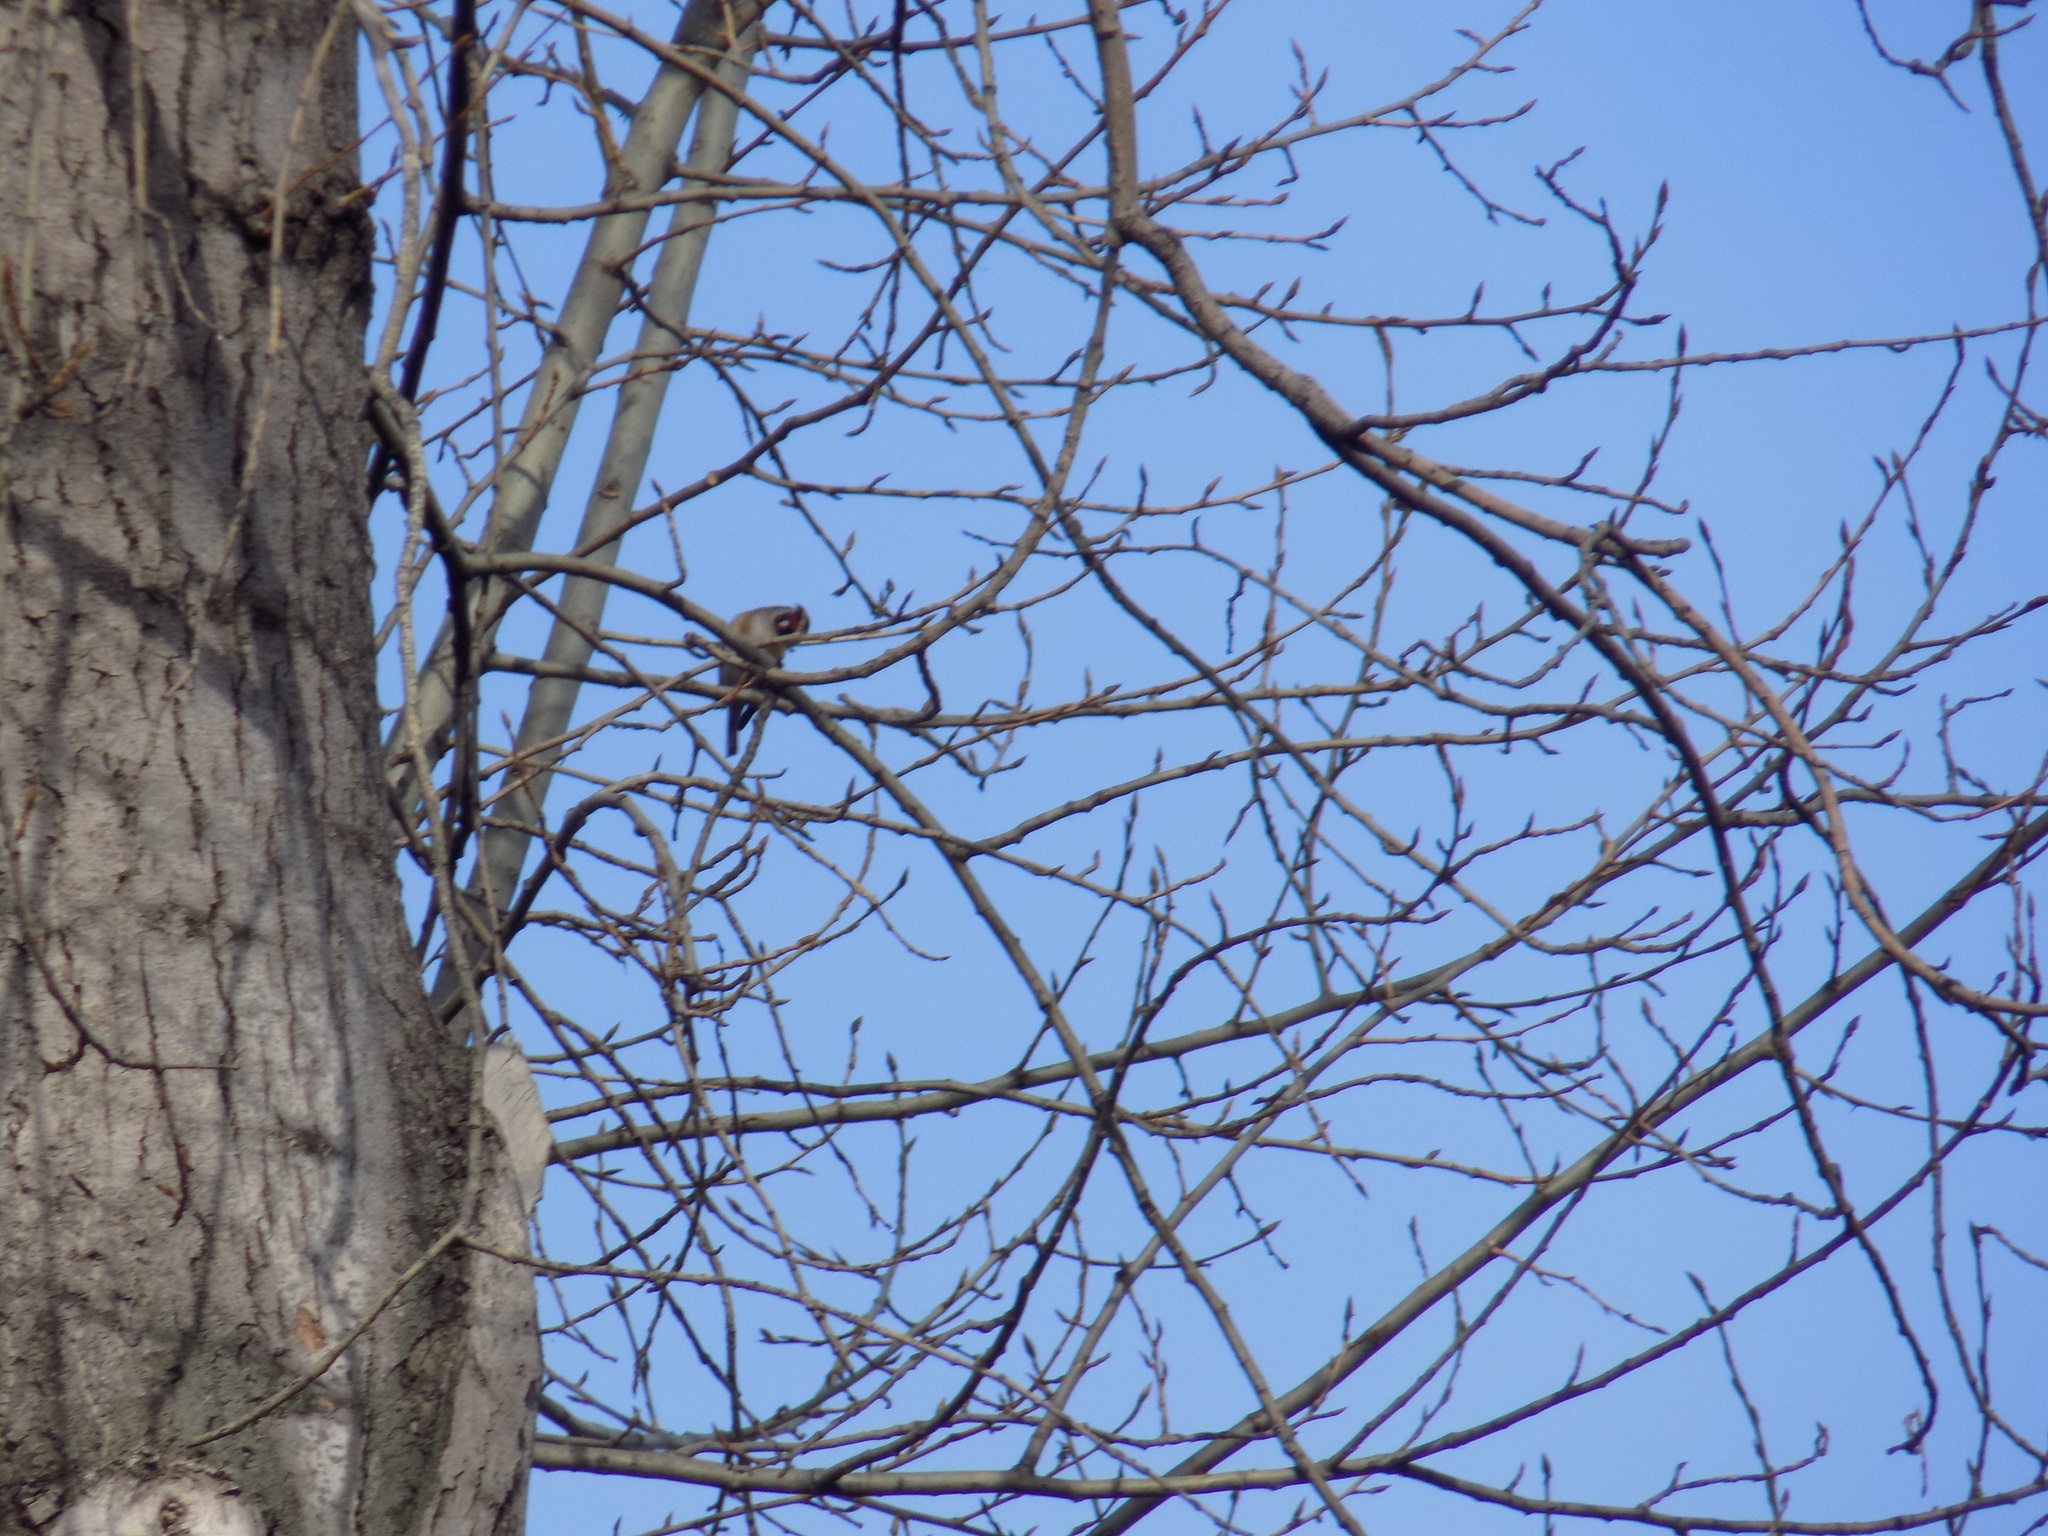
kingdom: Animalia
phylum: Chordata
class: Aves
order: Passeriformes
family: Fringillidae
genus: Carduelis
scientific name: Carduelis carduelis
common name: European goldfinch
